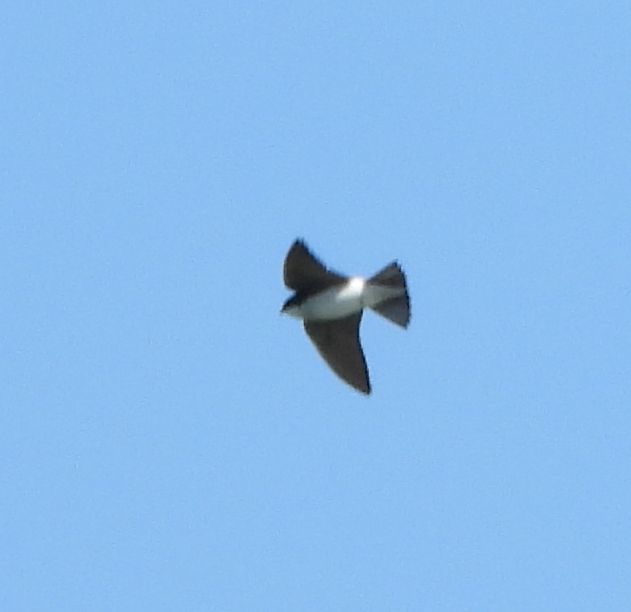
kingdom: Animalia
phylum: Chordata
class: Aves
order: Passeriformes
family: Hirundinidae
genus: Tachycineta
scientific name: Tachycineta bicolor
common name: Tree swallow
